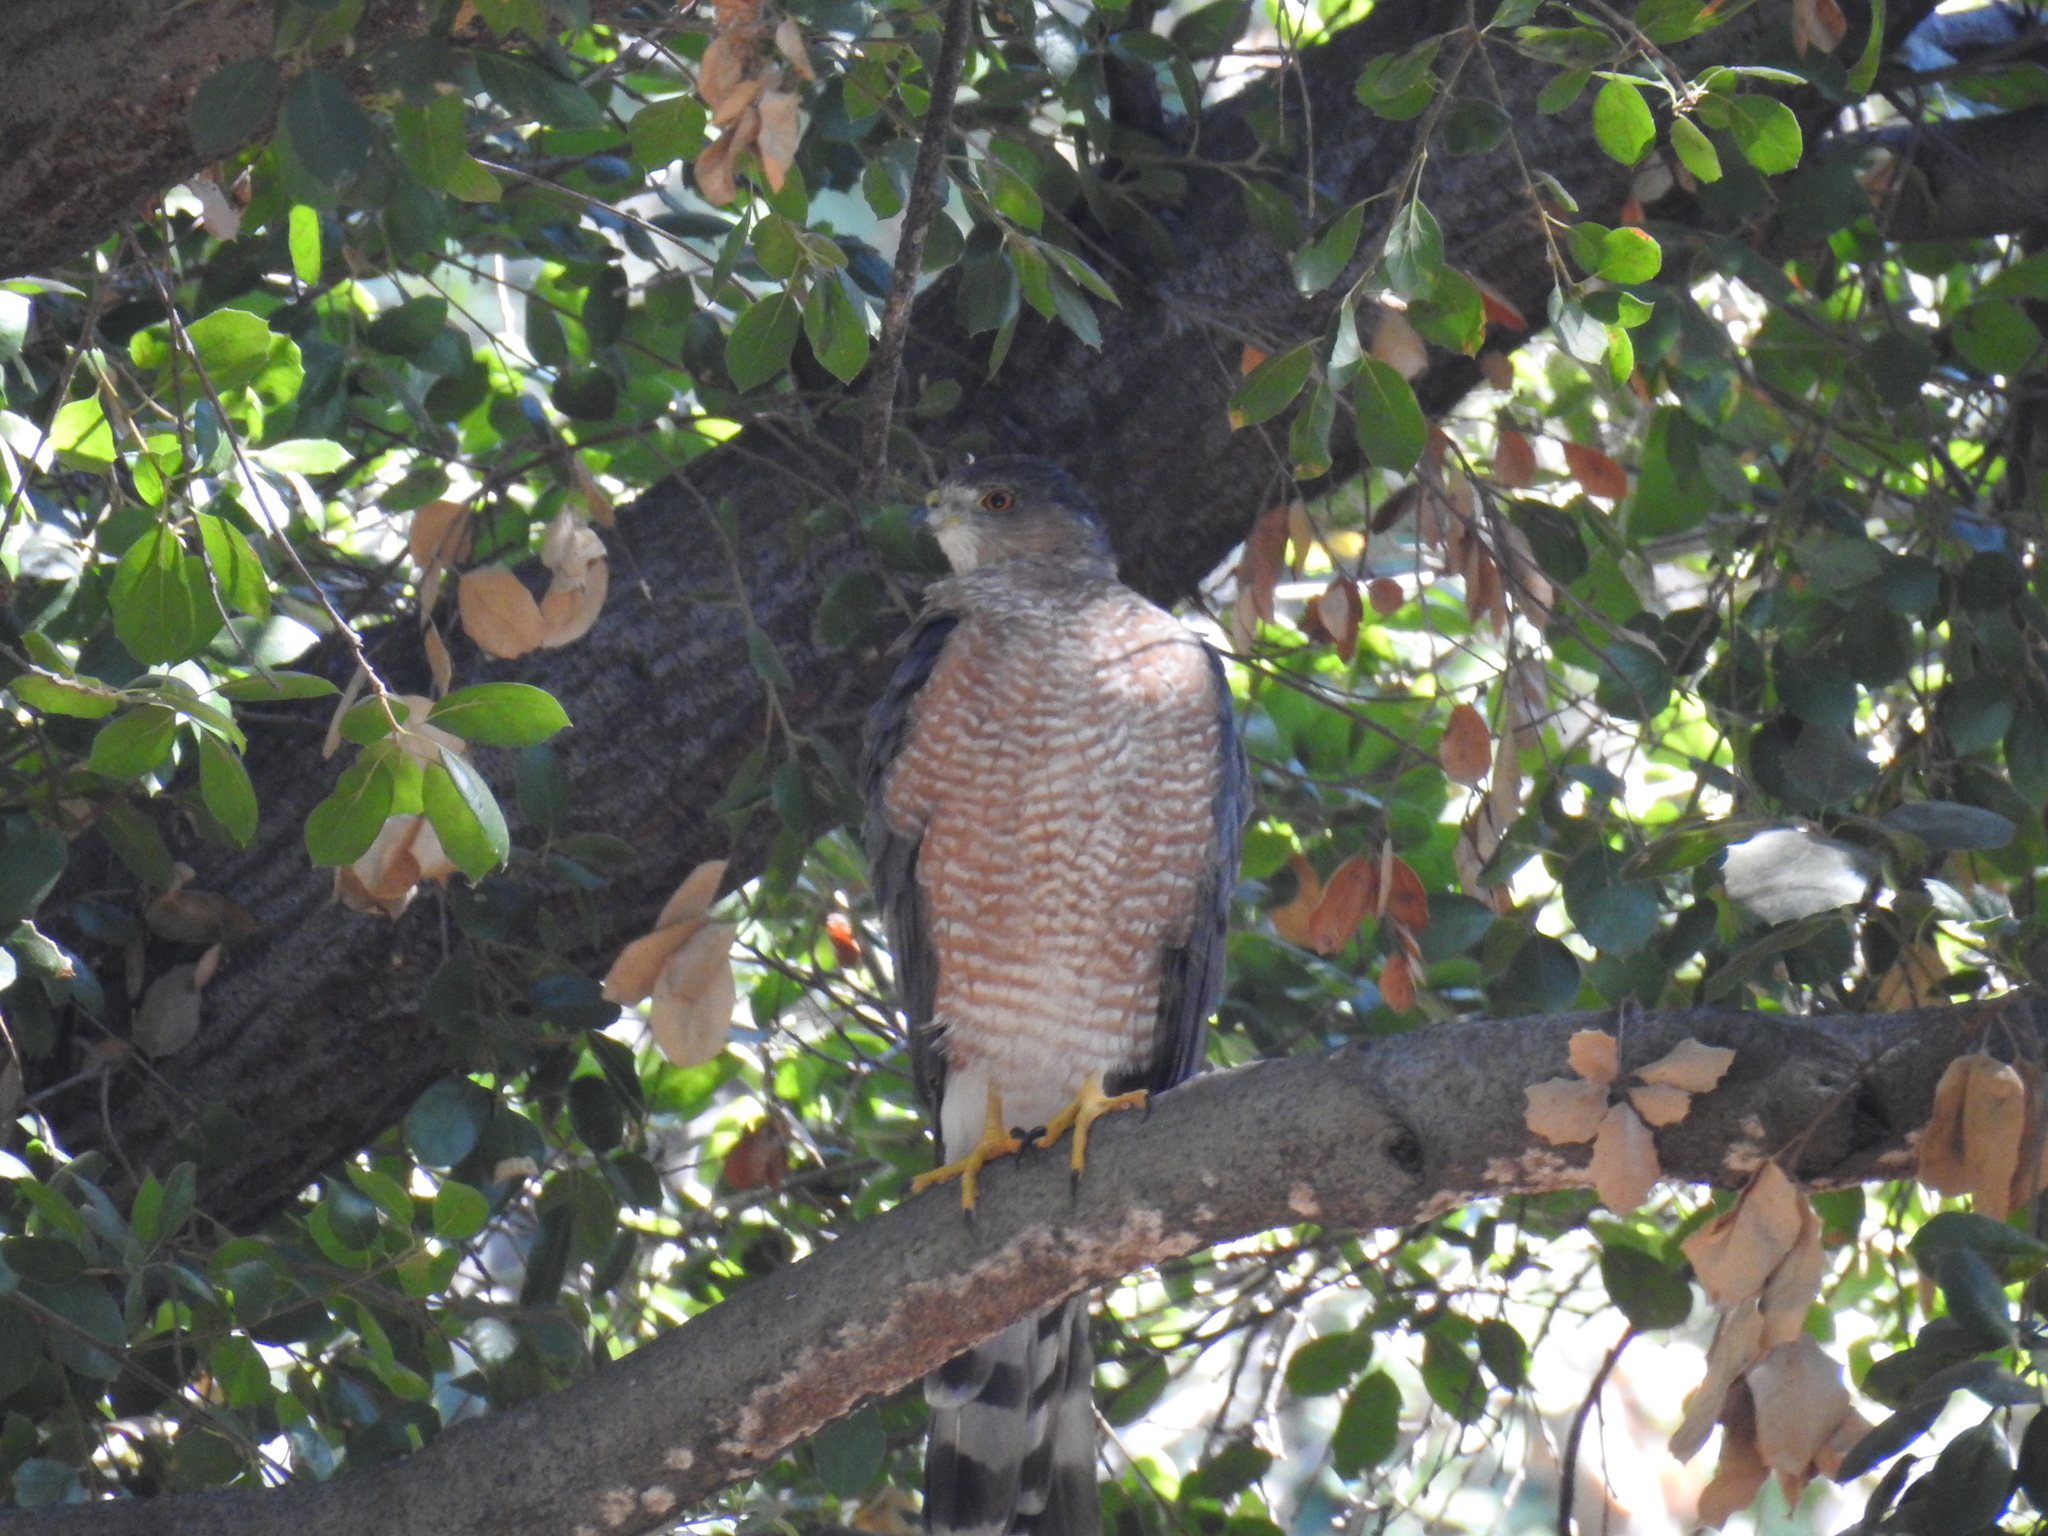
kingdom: Animalia
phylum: Chordata
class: Aves
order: Accipitriformes
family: Accipitridae
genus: Accipiter
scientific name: Accipiter cooperii
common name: Cooper's hawk
